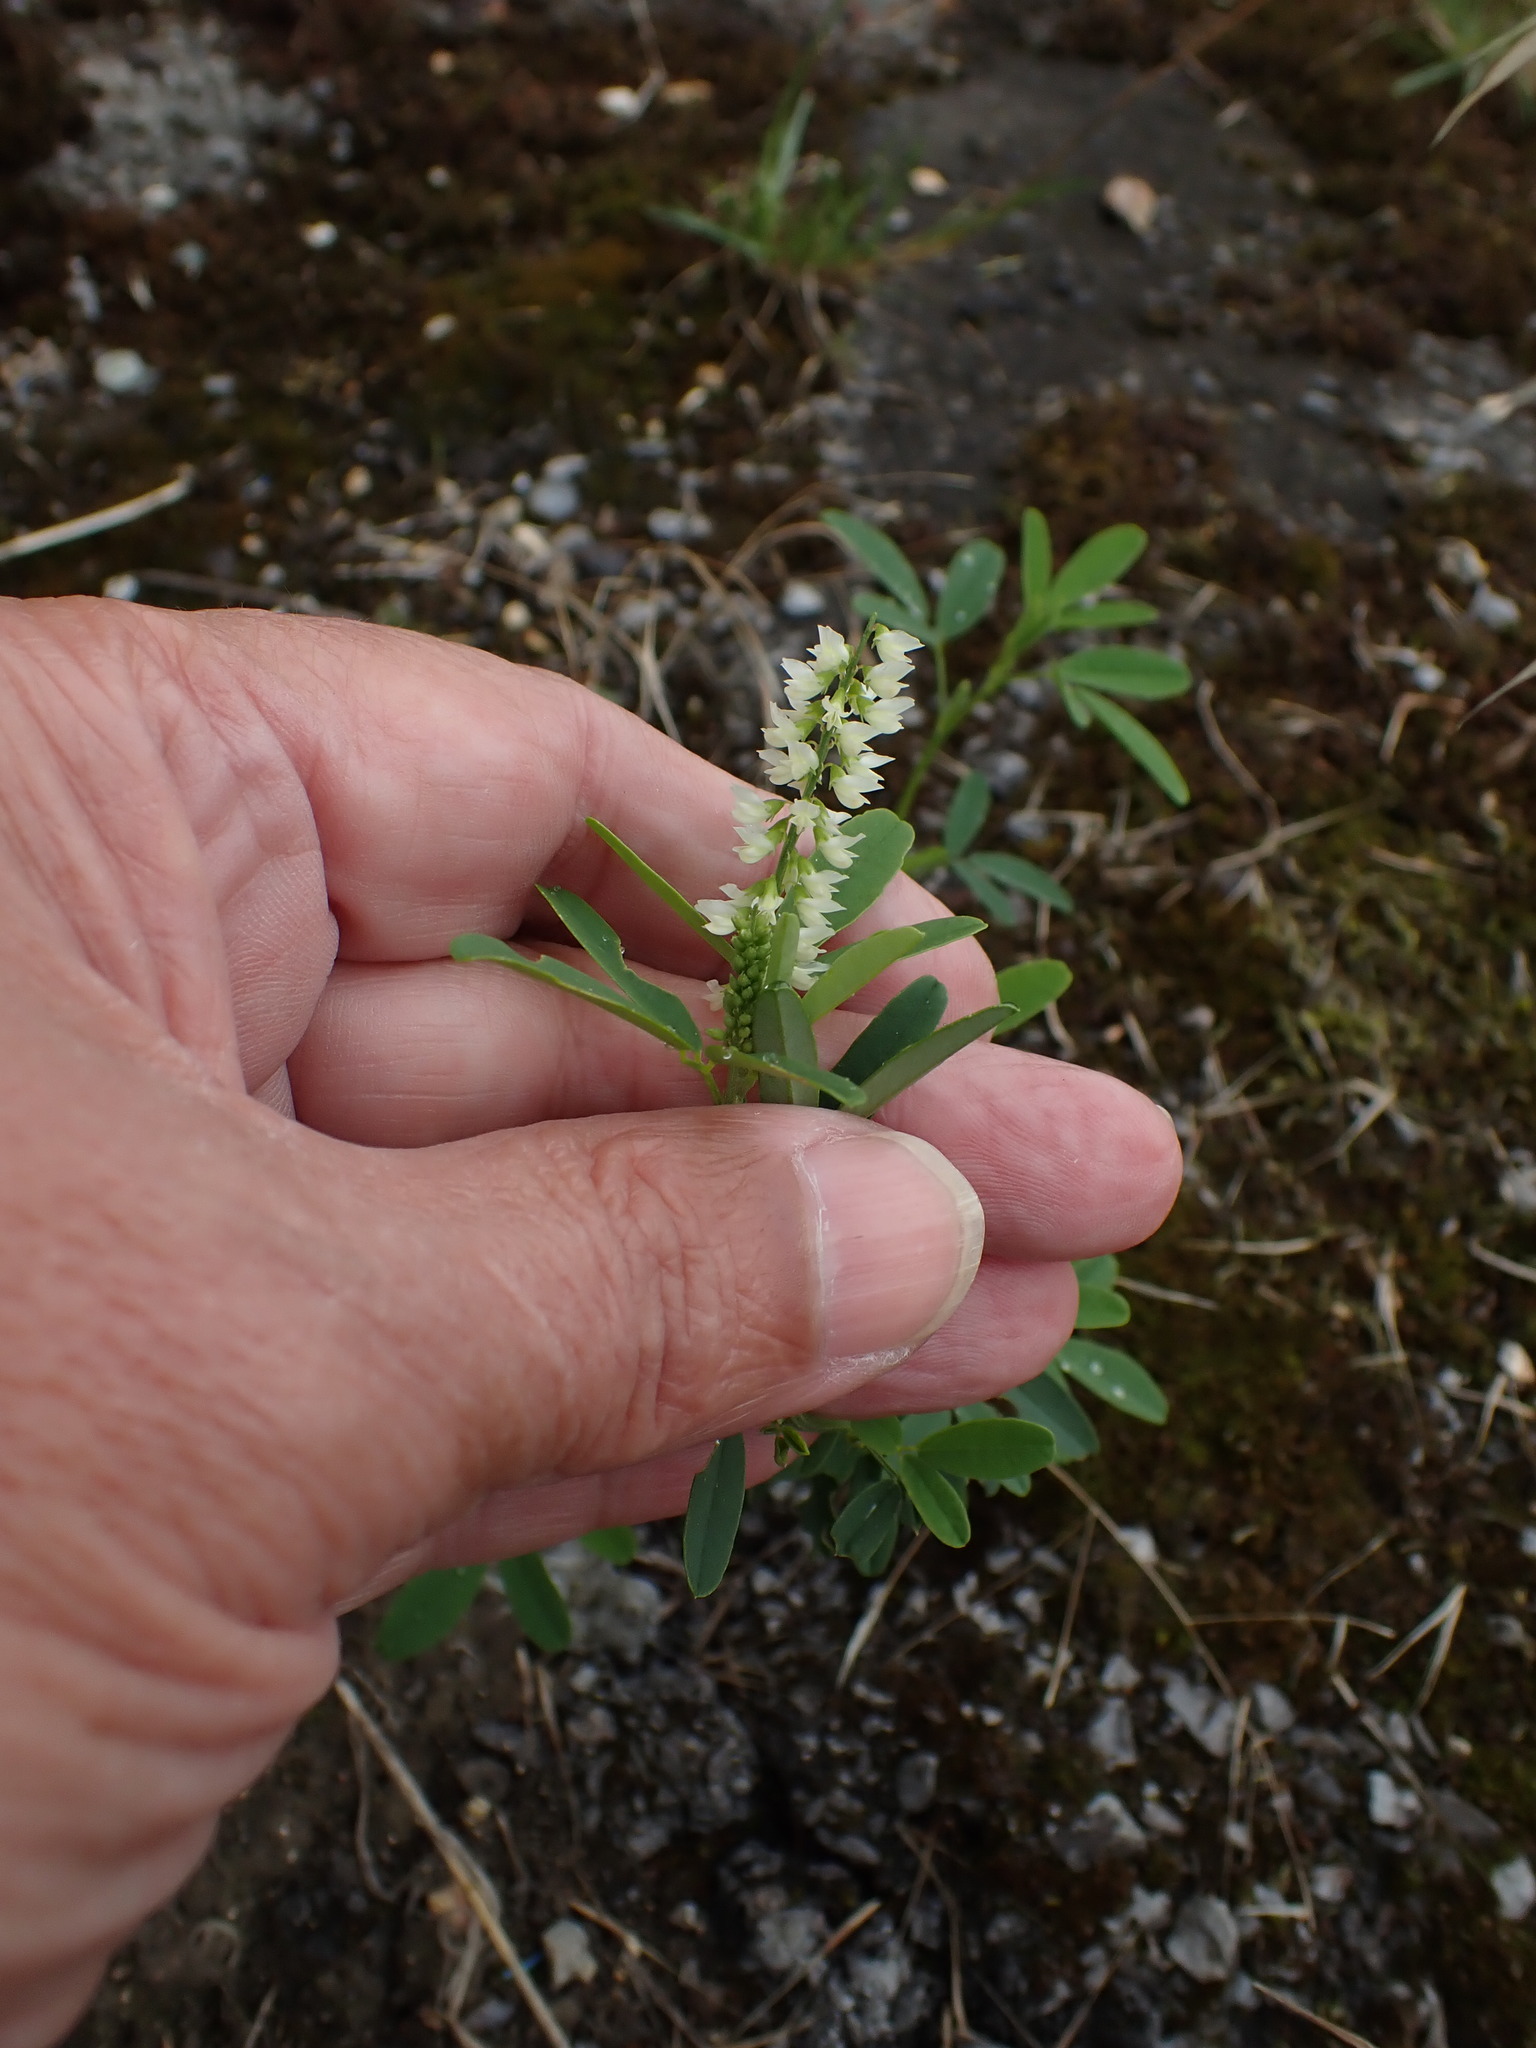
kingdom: Plantae
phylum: Tracheophyta
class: Magnoliopsida
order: Fabales
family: Fabaceae
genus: Melilotus
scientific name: Melilotus albus
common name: White melilot
